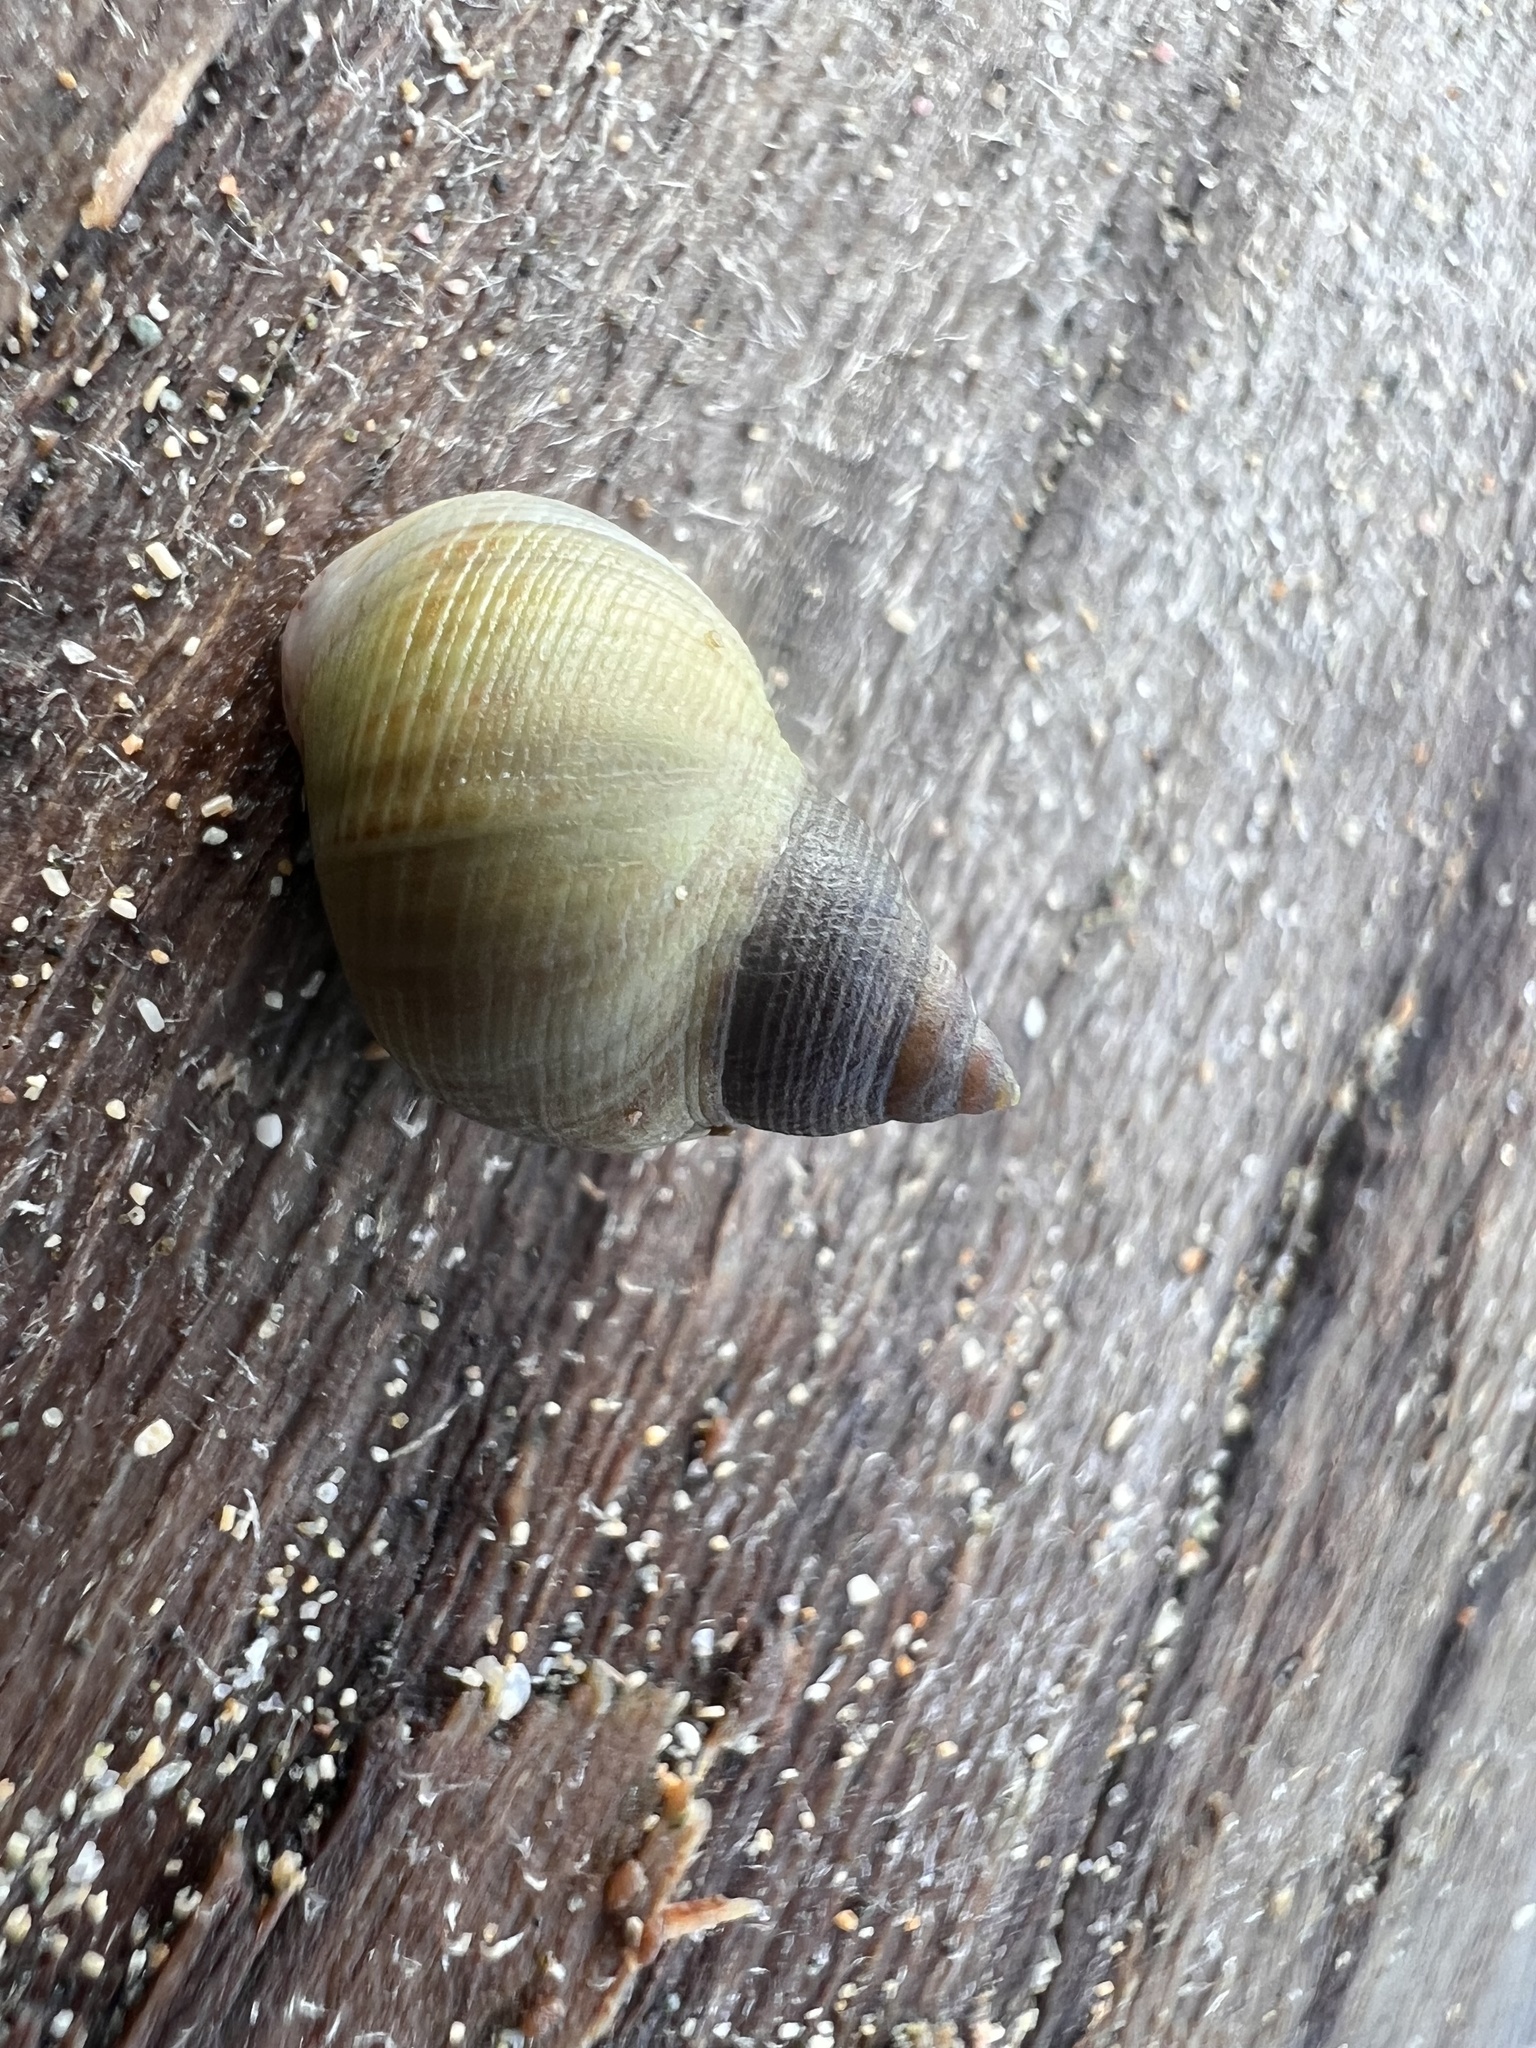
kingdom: Animalia
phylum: Mollusca
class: Gastropoda
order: Littorinimorpha
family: Littorinidae
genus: Littoraria
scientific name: Littoraria nebulosa
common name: Cloudy periwinkle
